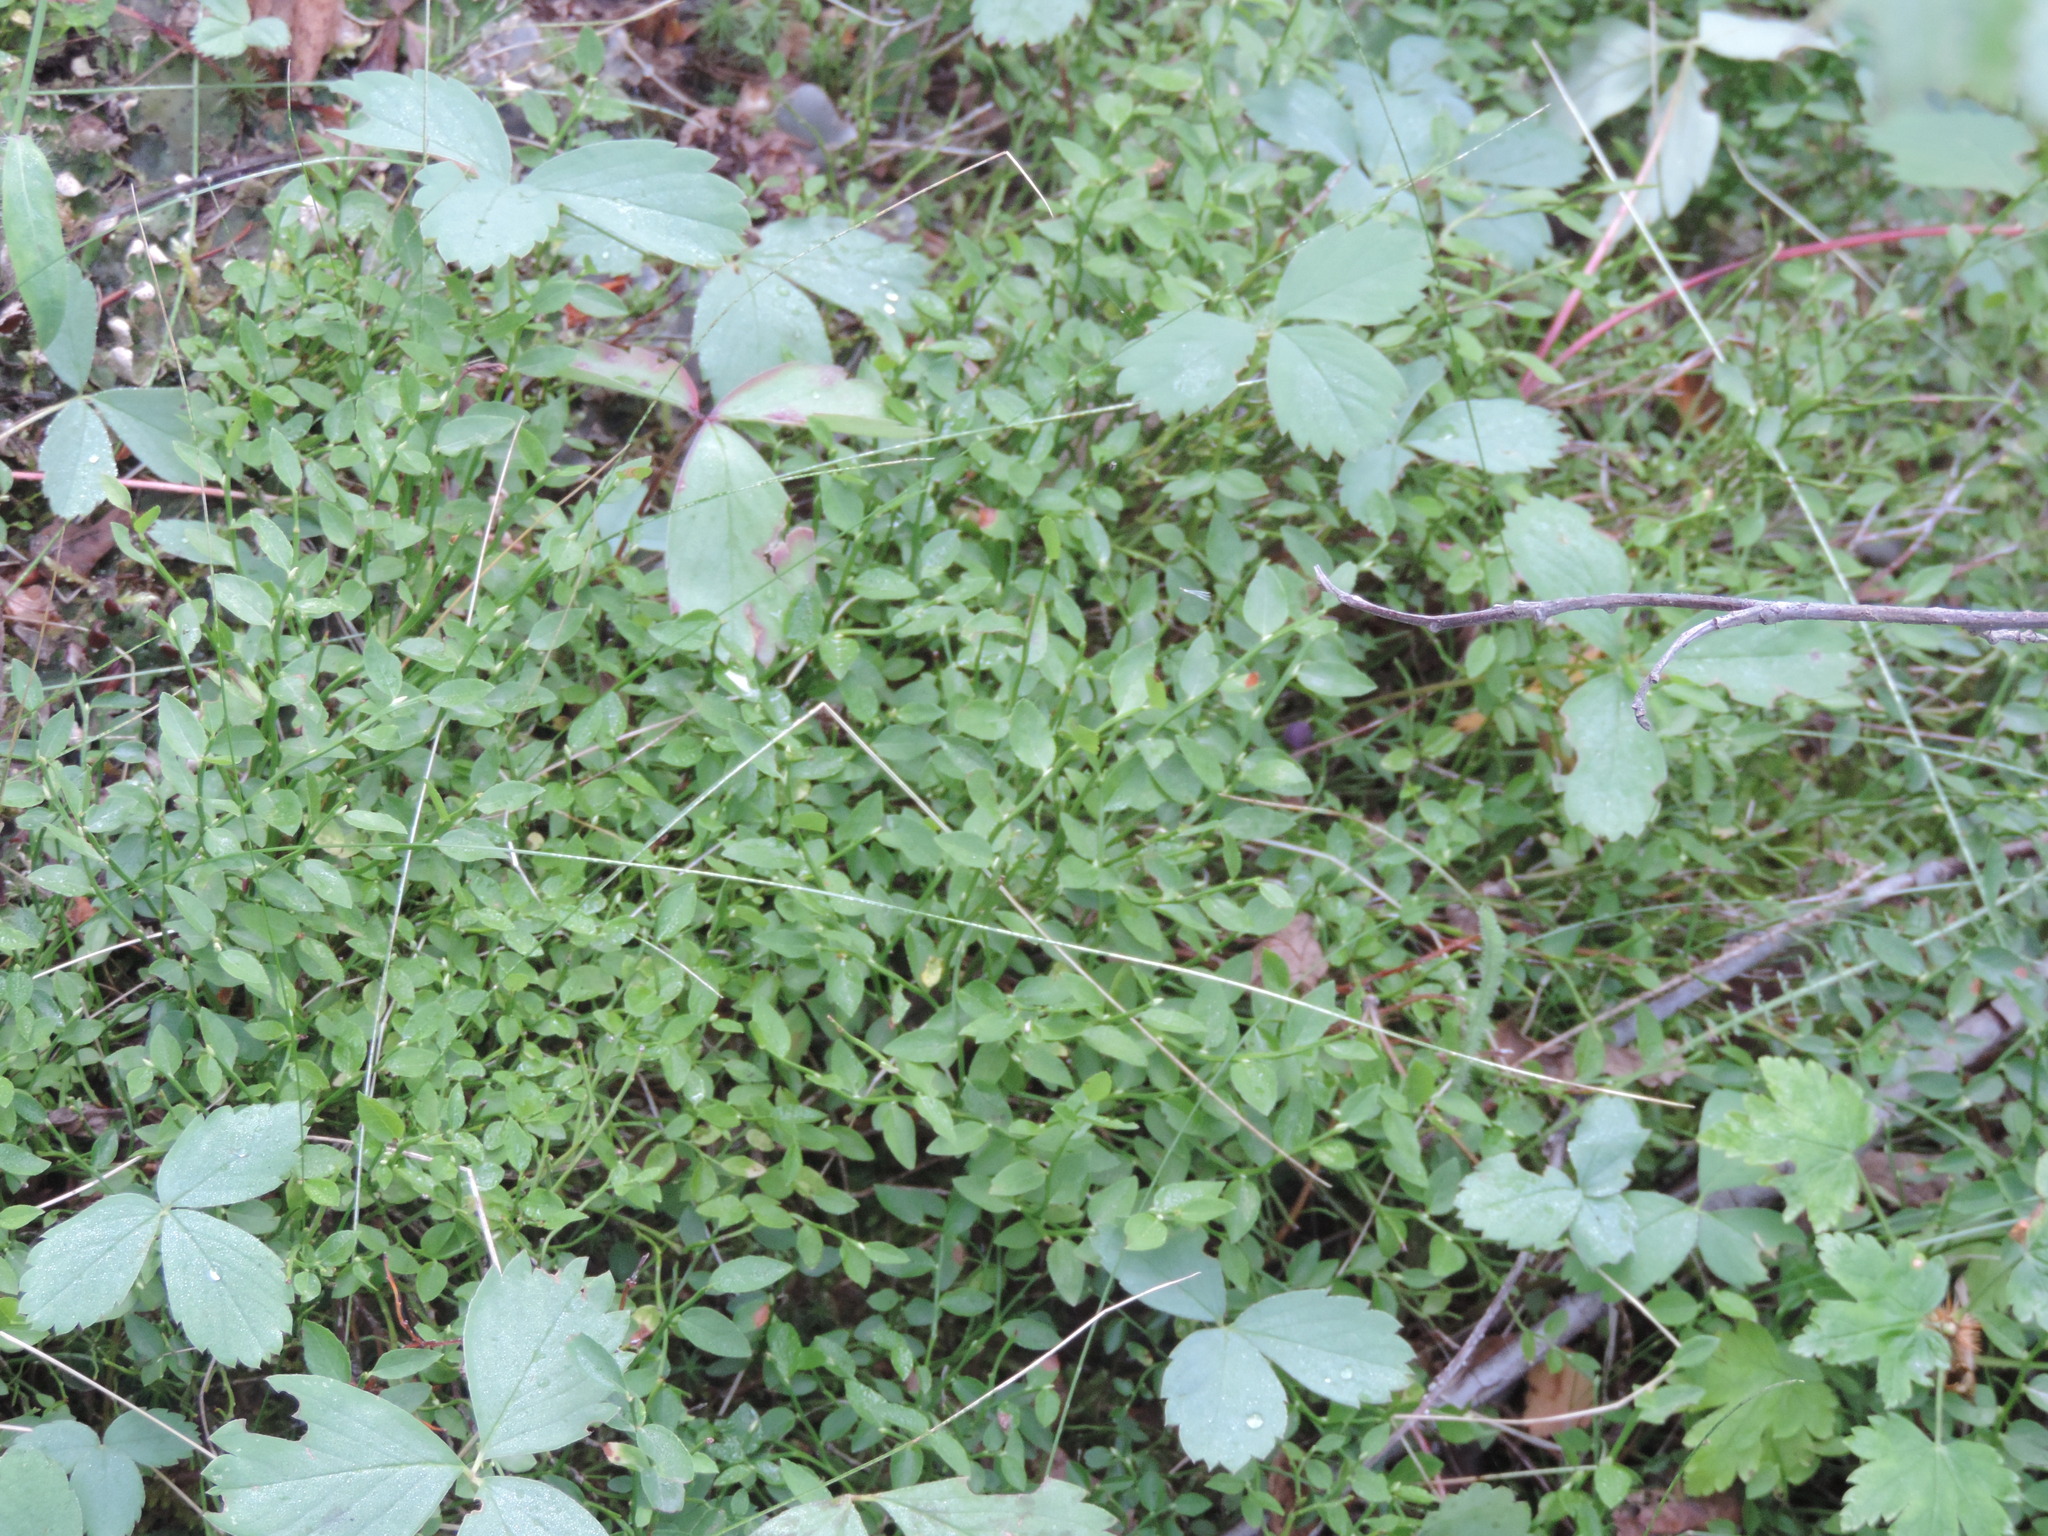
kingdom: Plantae
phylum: Tracheophyta
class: Magnoliopsida
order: Ericales
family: Ericaceae
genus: Vaccinium
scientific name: Vaccinium scoparium
